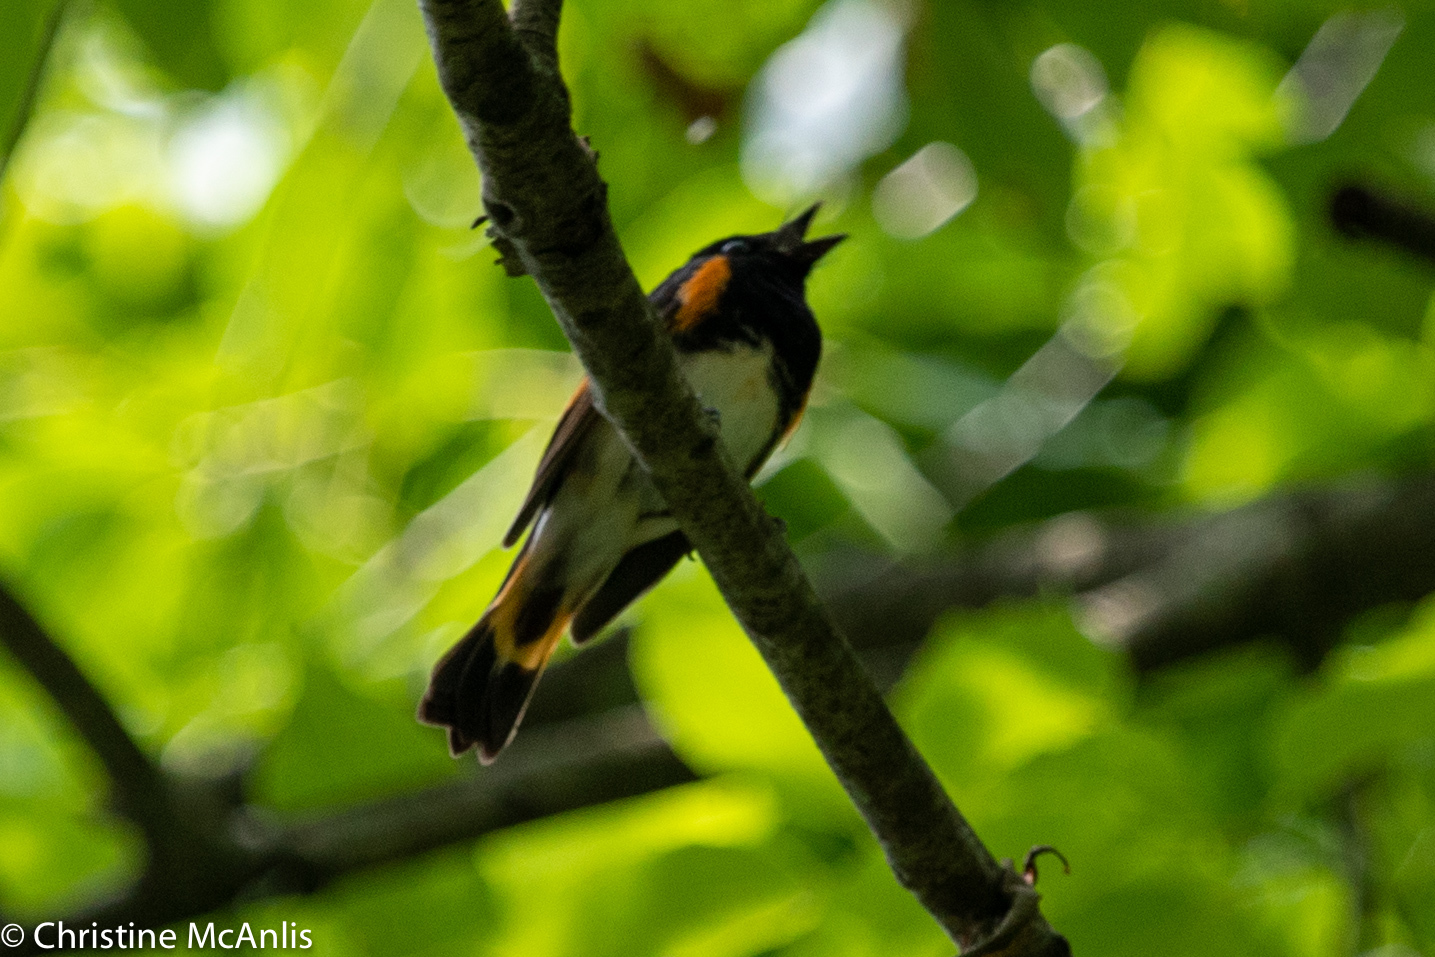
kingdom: Animalia
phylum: Chordata
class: Aves
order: Passeriformes
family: Parulidae
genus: Setophaga
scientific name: Setophaga ruticilla
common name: American redstart
